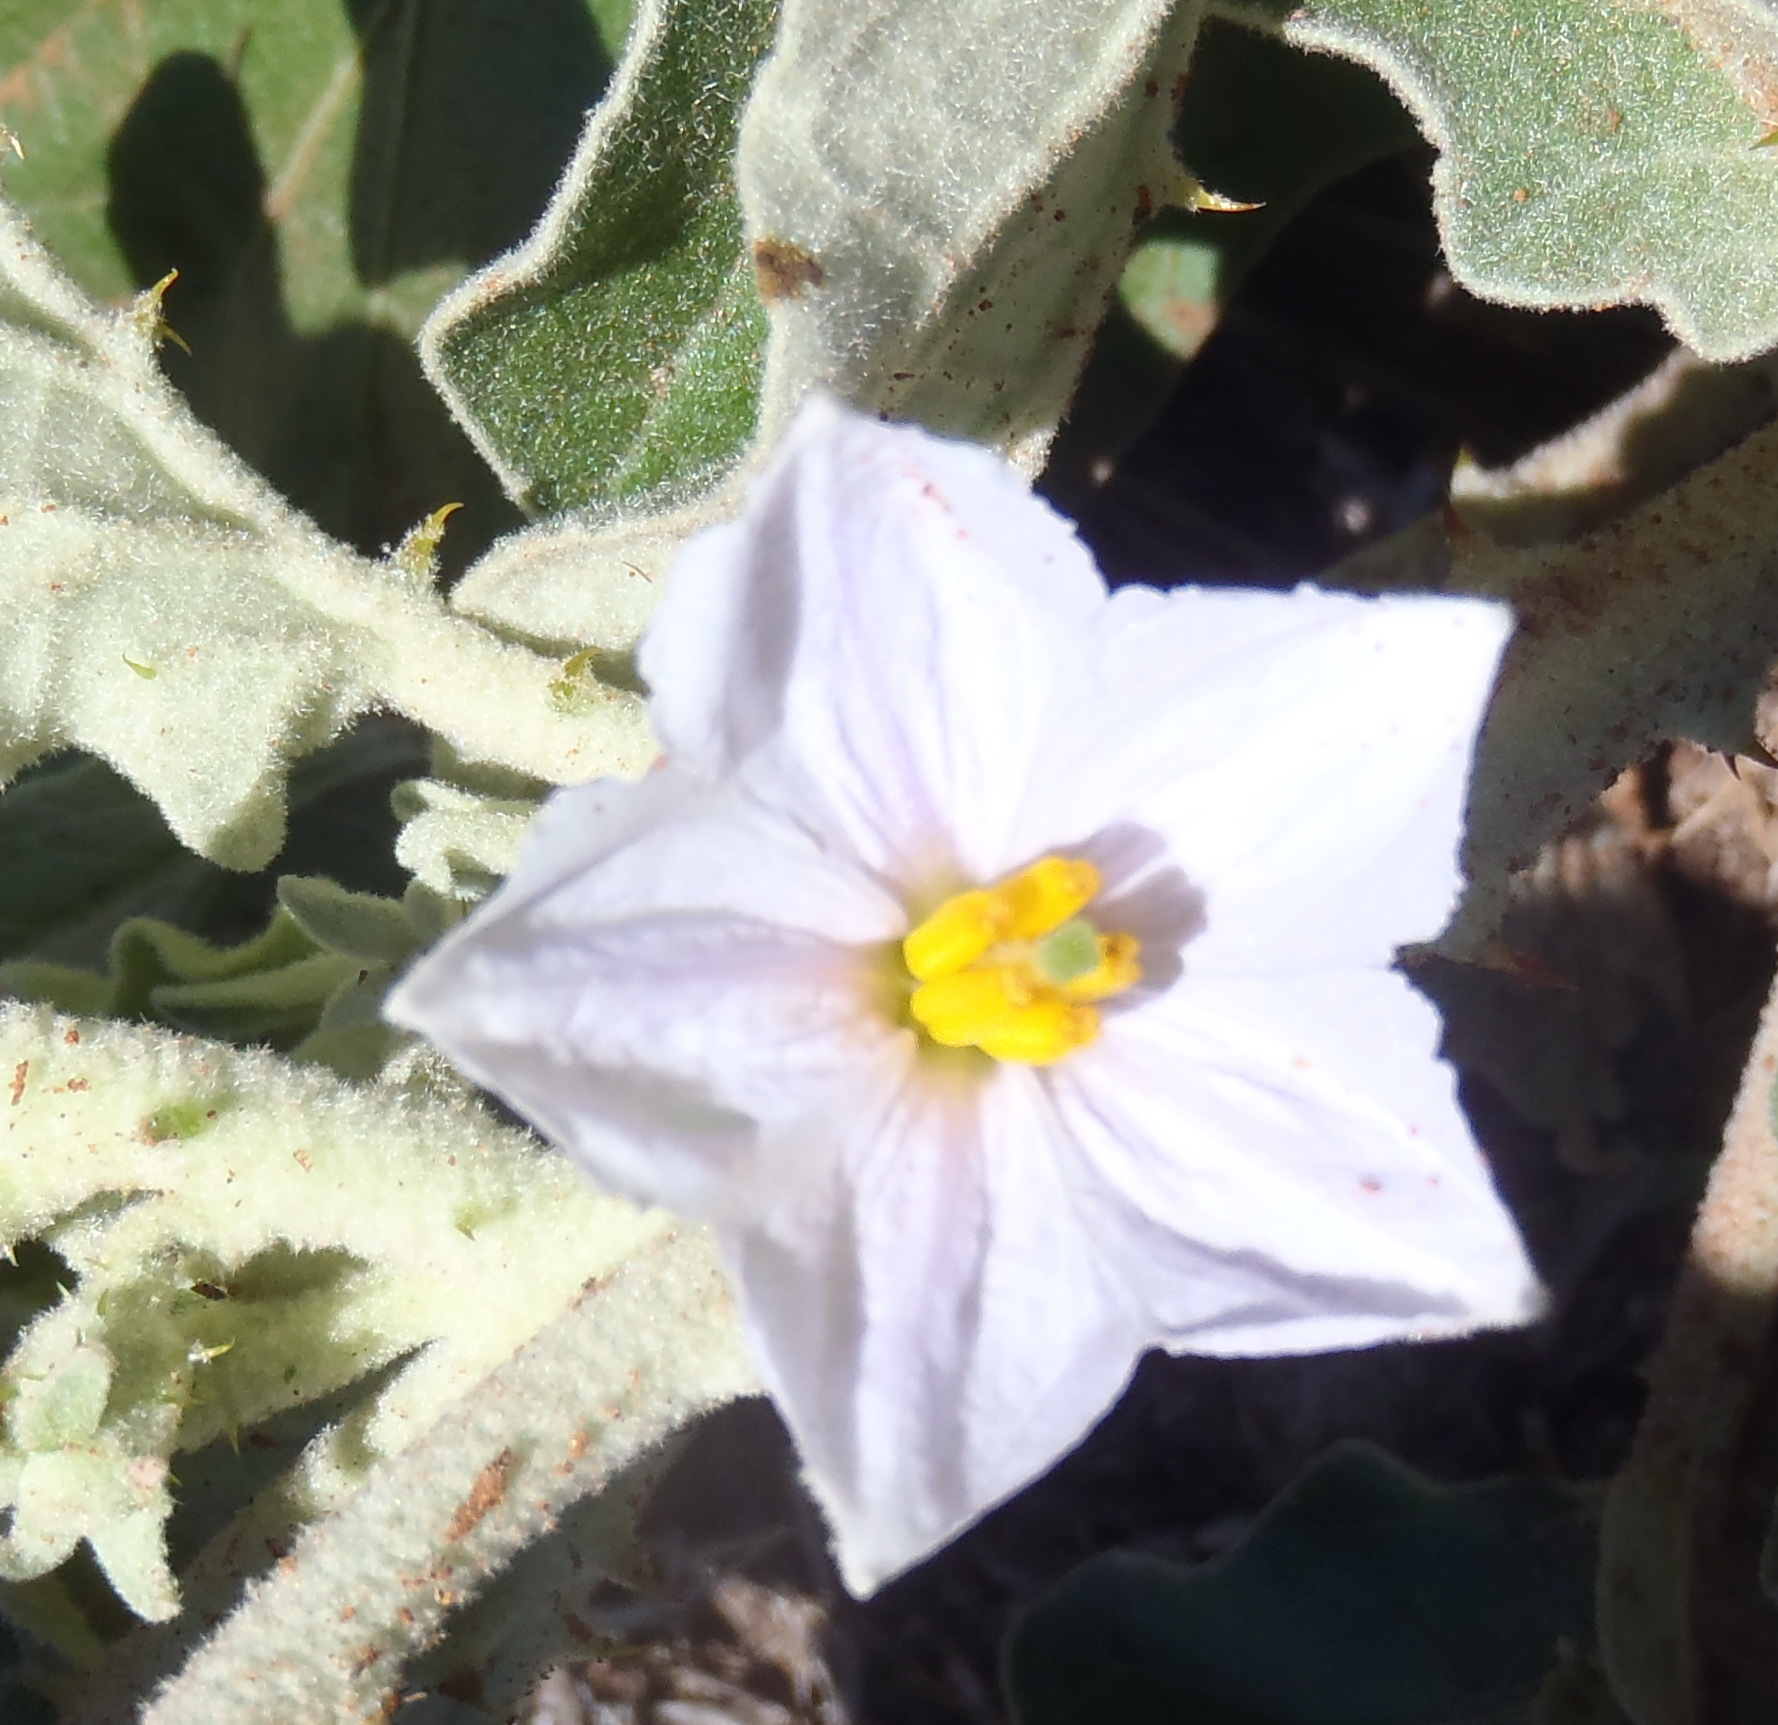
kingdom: Plantae
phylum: Tracheophyta
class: Magnoliopsida
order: Solanales
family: Solanaceae
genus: Solanum
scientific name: Solanum lichtensteinii
